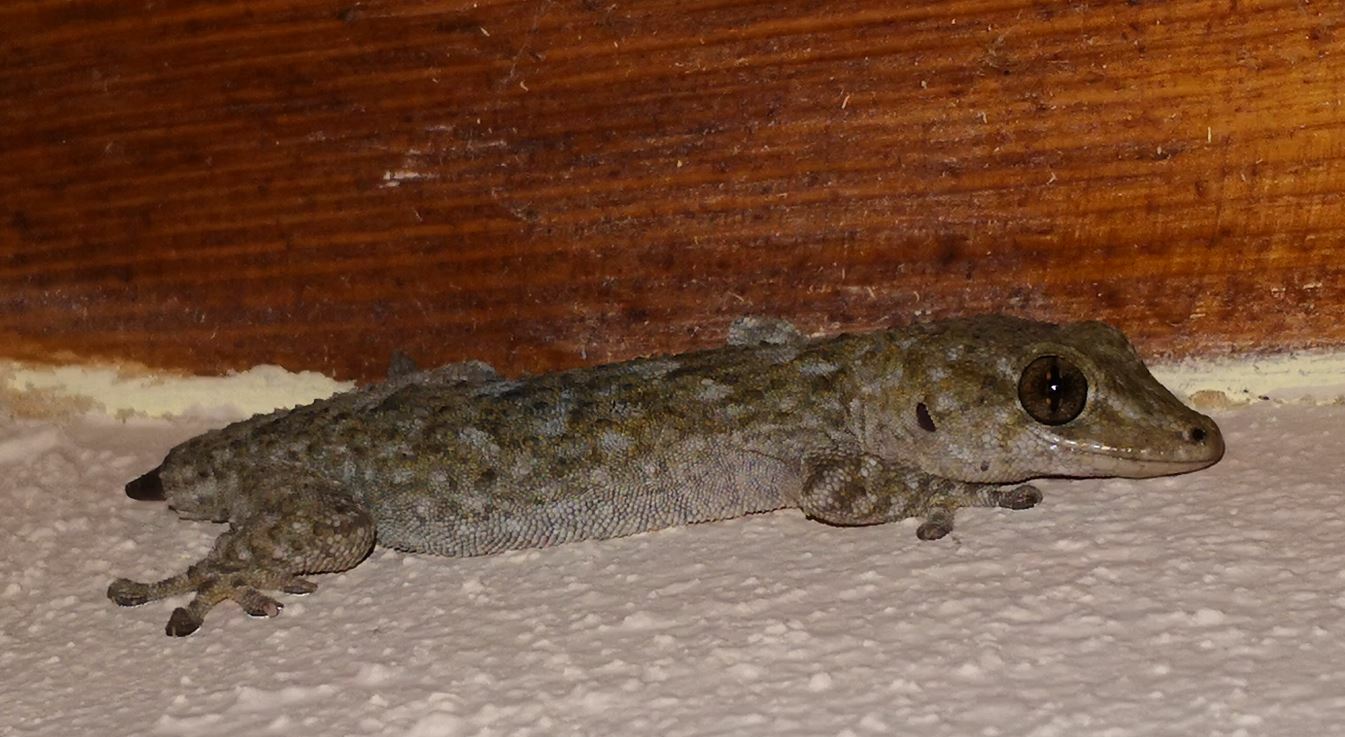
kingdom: Animalia
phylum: Chordata
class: Squamata
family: Phyllodactylidae
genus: Tarentola
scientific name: Tarentola delalandii
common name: Tenerife wall gecko
